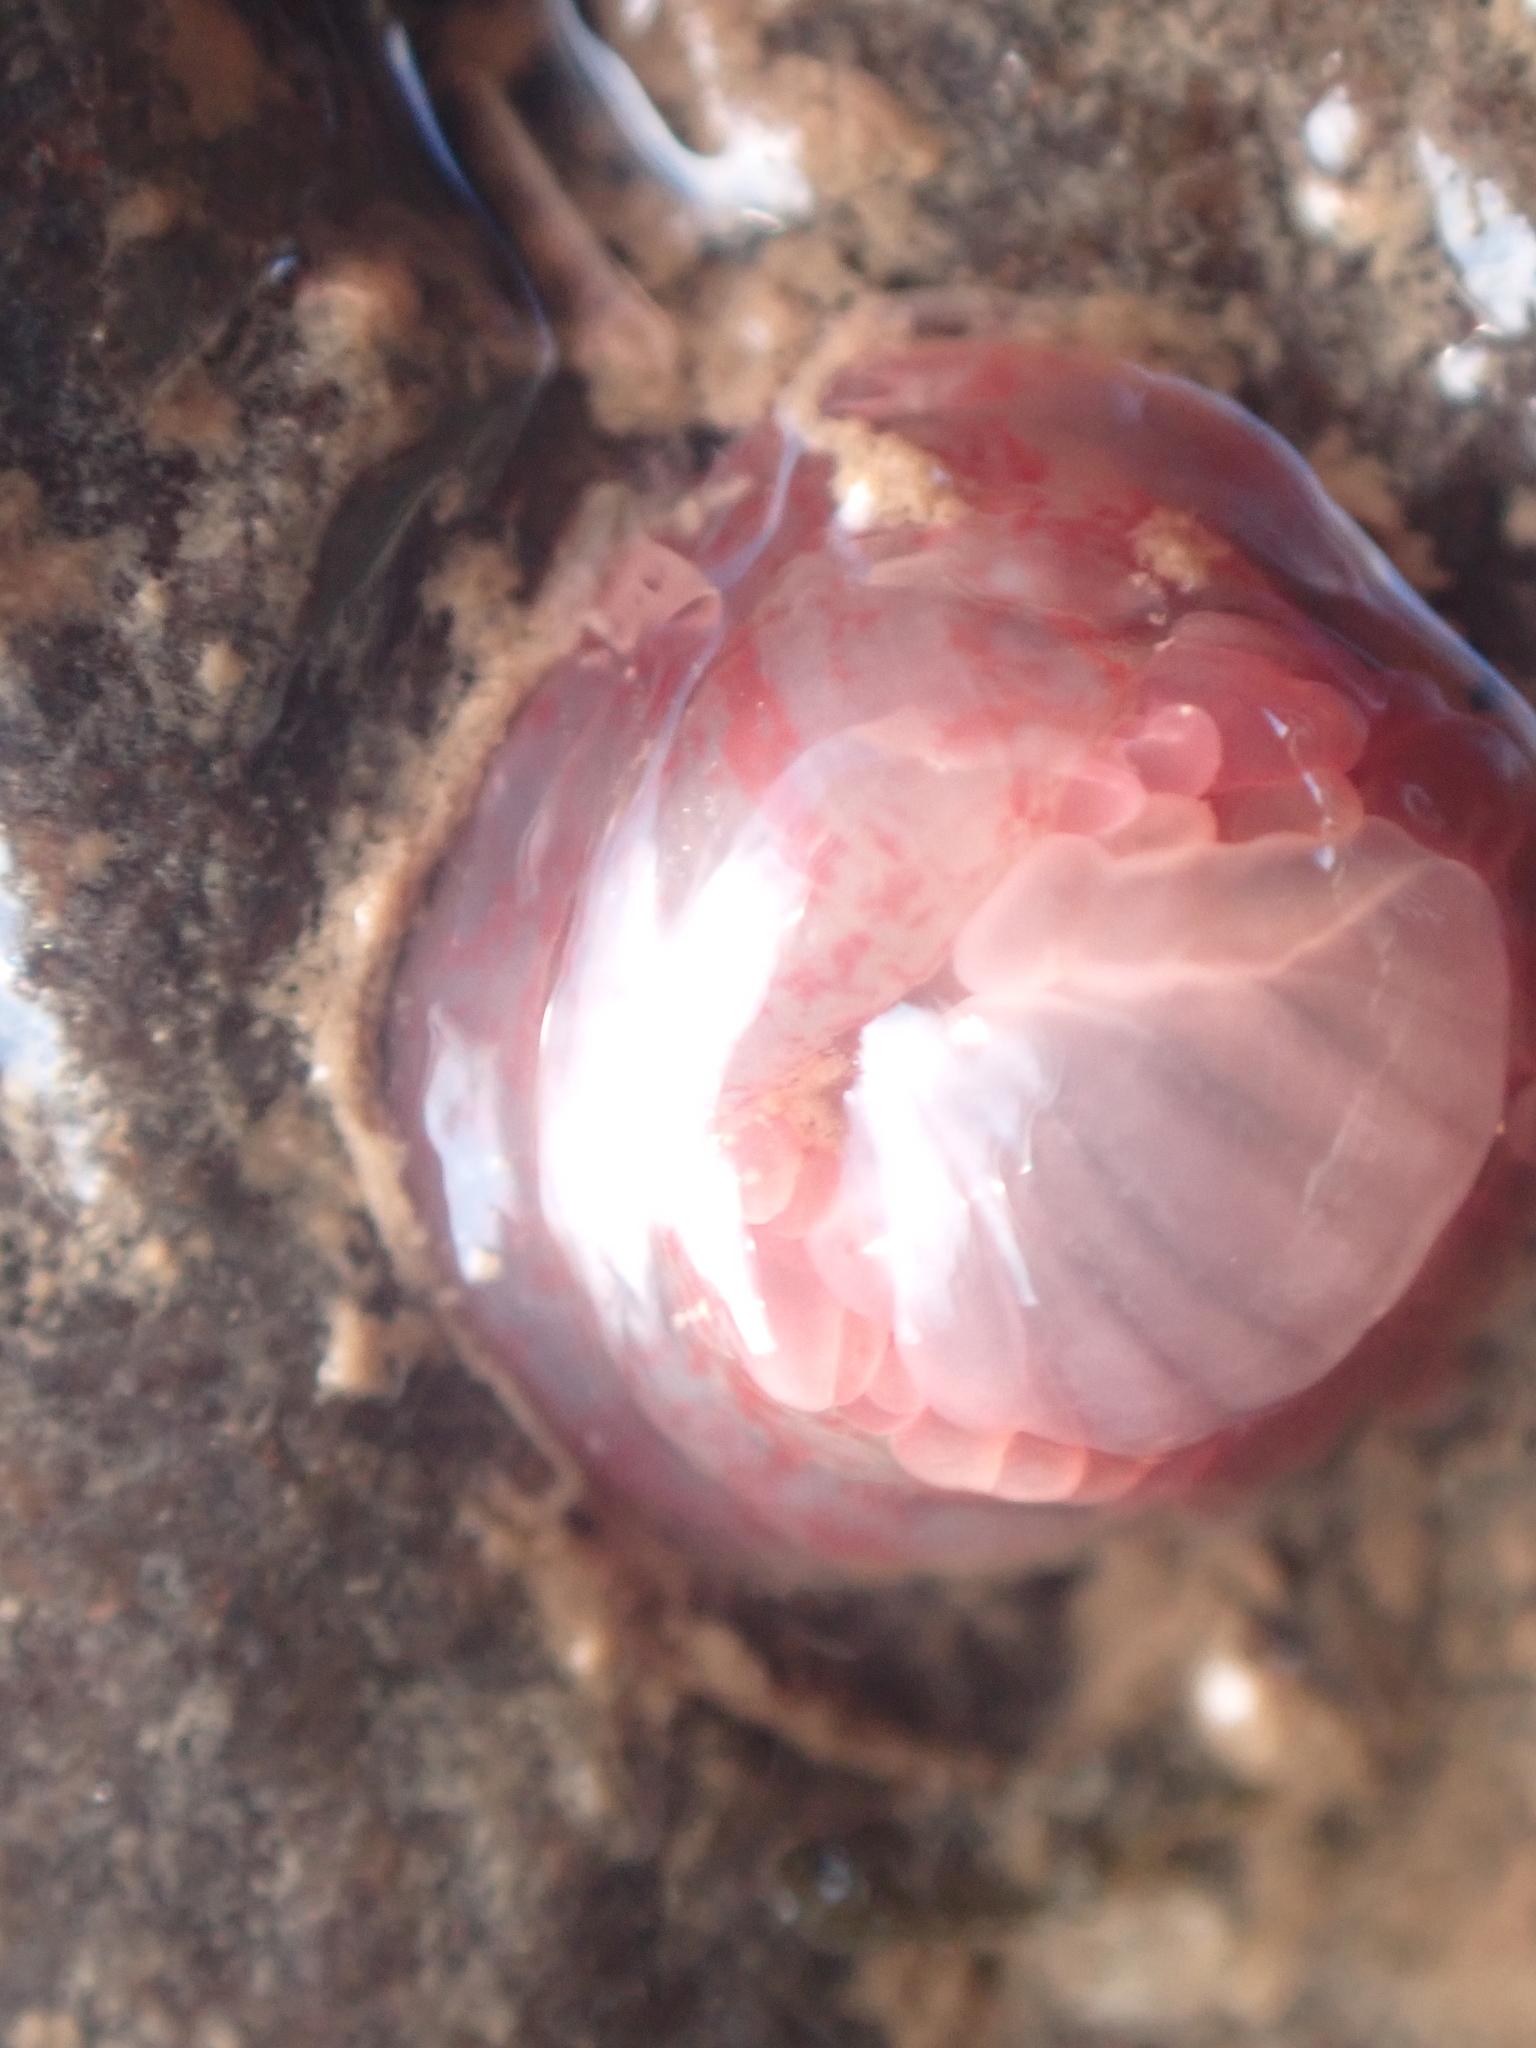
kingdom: Animalia
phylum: Cnidaria
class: Anthozoa
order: Actiniaria
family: Actiniidae
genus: Urticina
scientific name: Urticina crassicornis
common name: Mottled anemone
